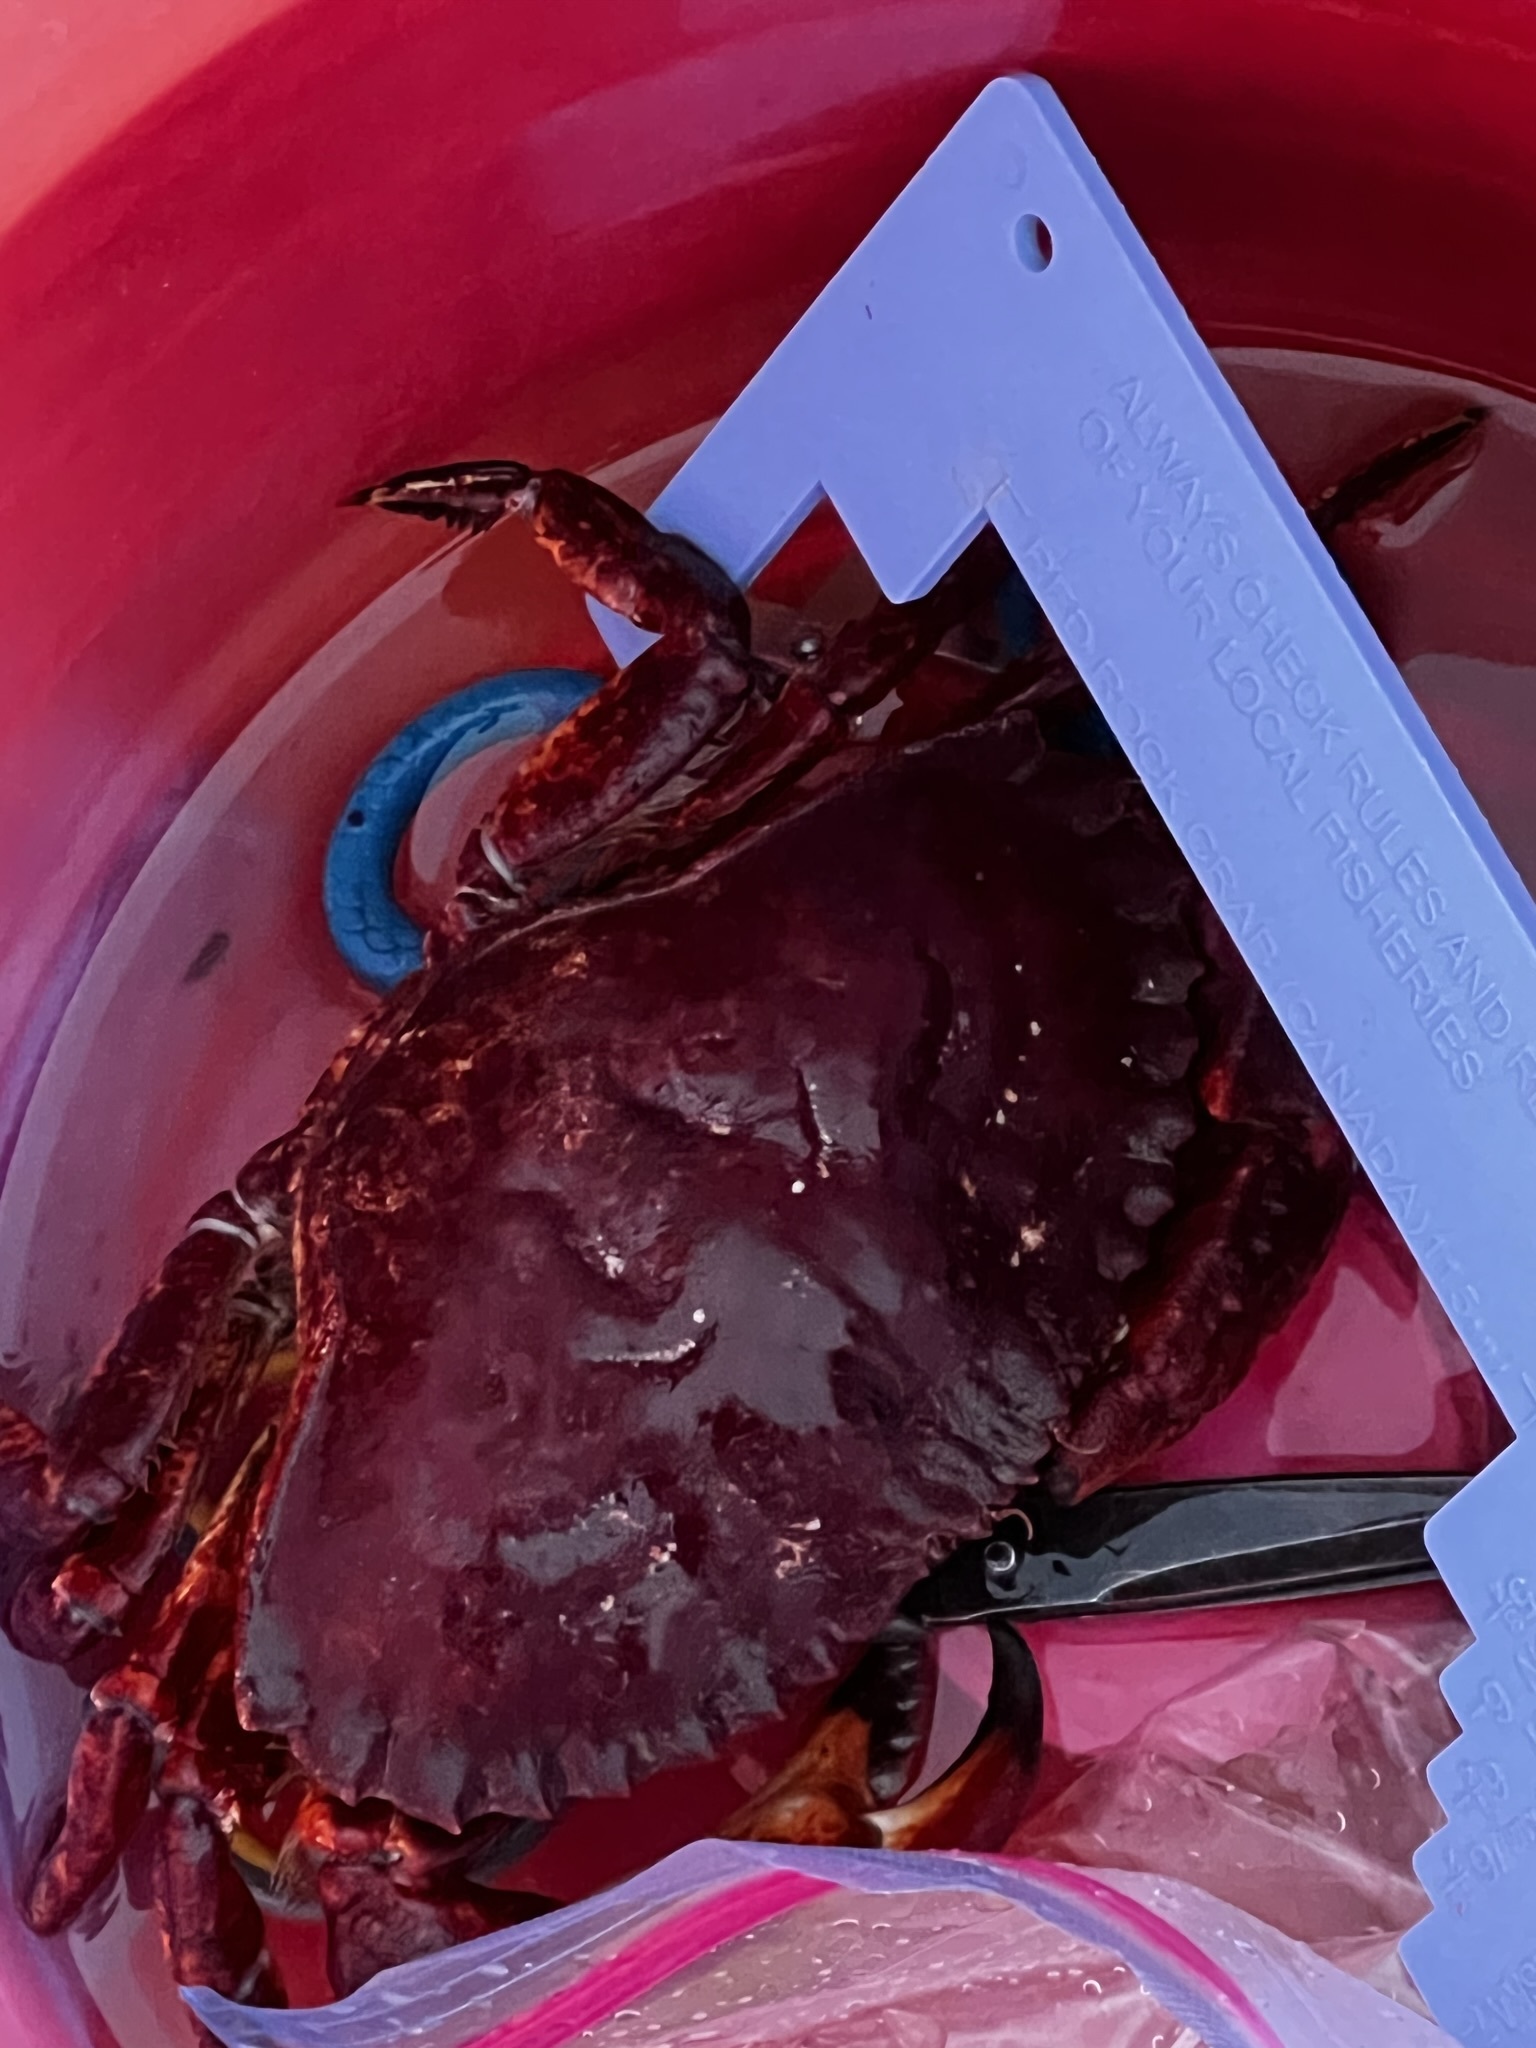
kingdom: Animalia
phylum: Arthropoda
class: Malacostraca
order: Decapoda
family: Cancridae
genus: Cancer
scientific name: Cancer productus
